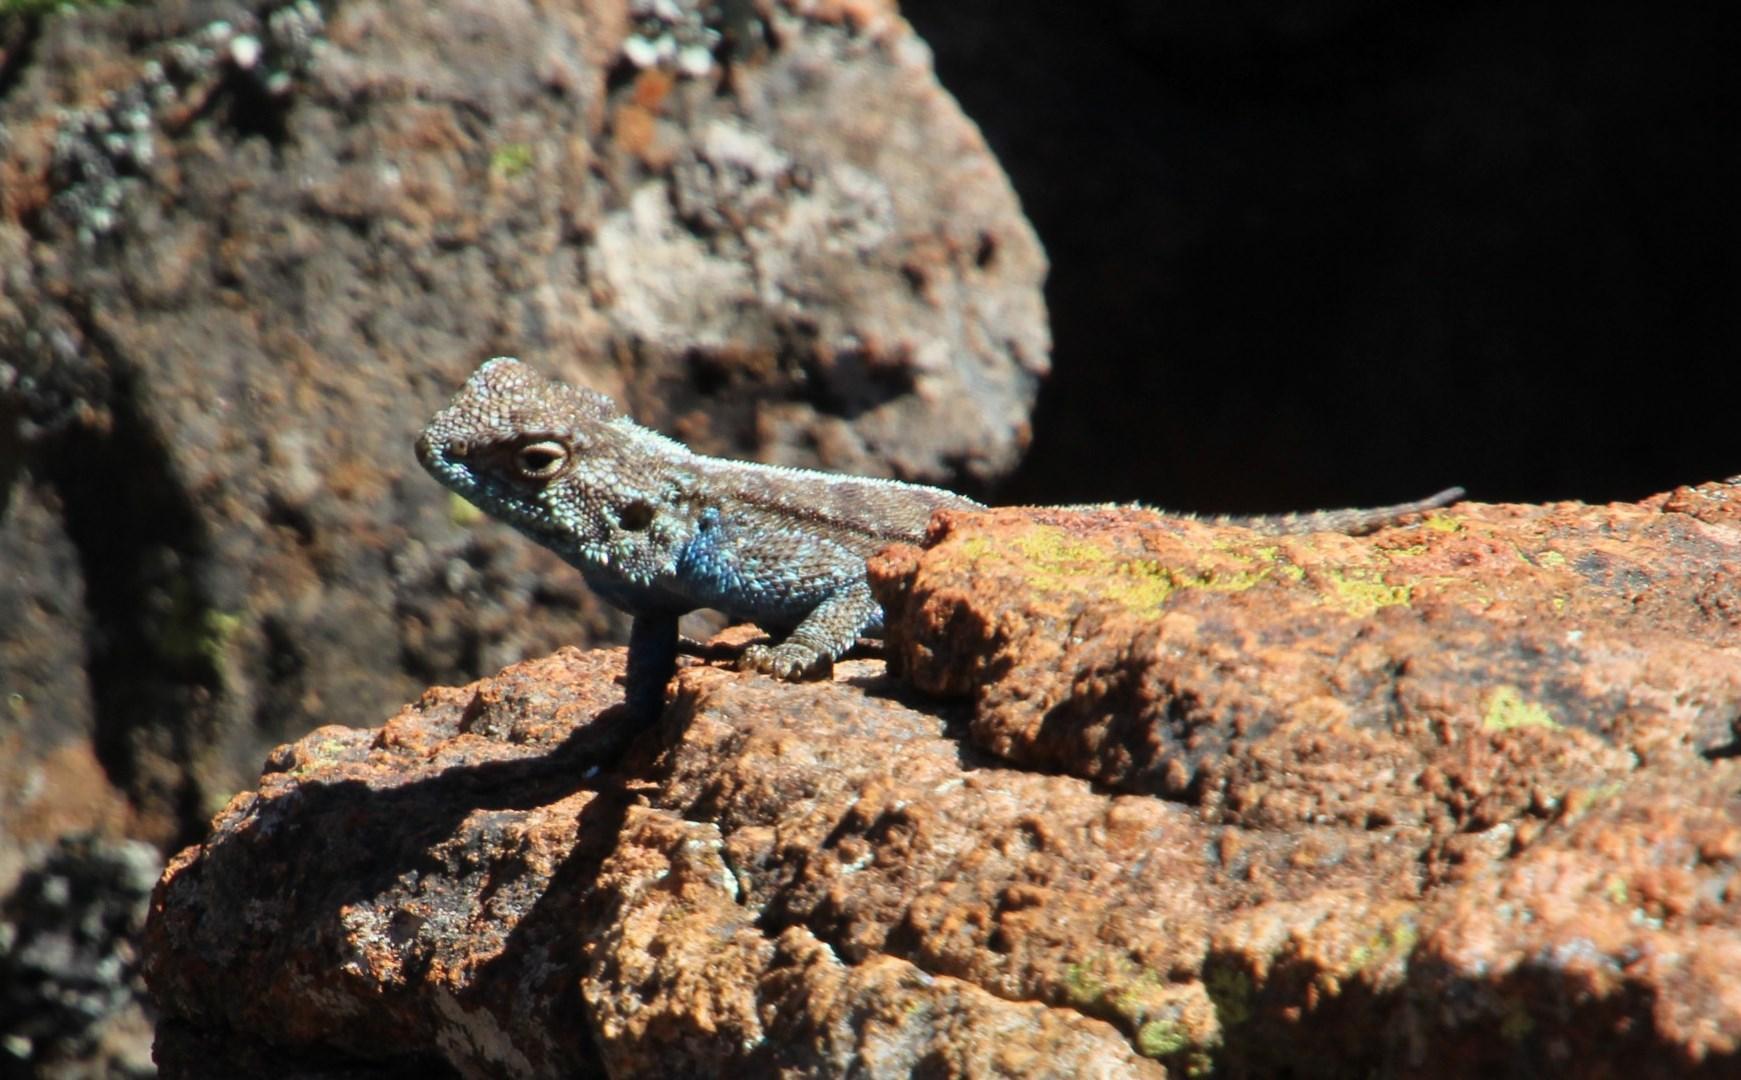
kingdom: Animalia
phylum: Chordata
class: Squamata
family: Agamidae
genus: Agama
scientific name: Agama atra
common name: Southern african rock agama
